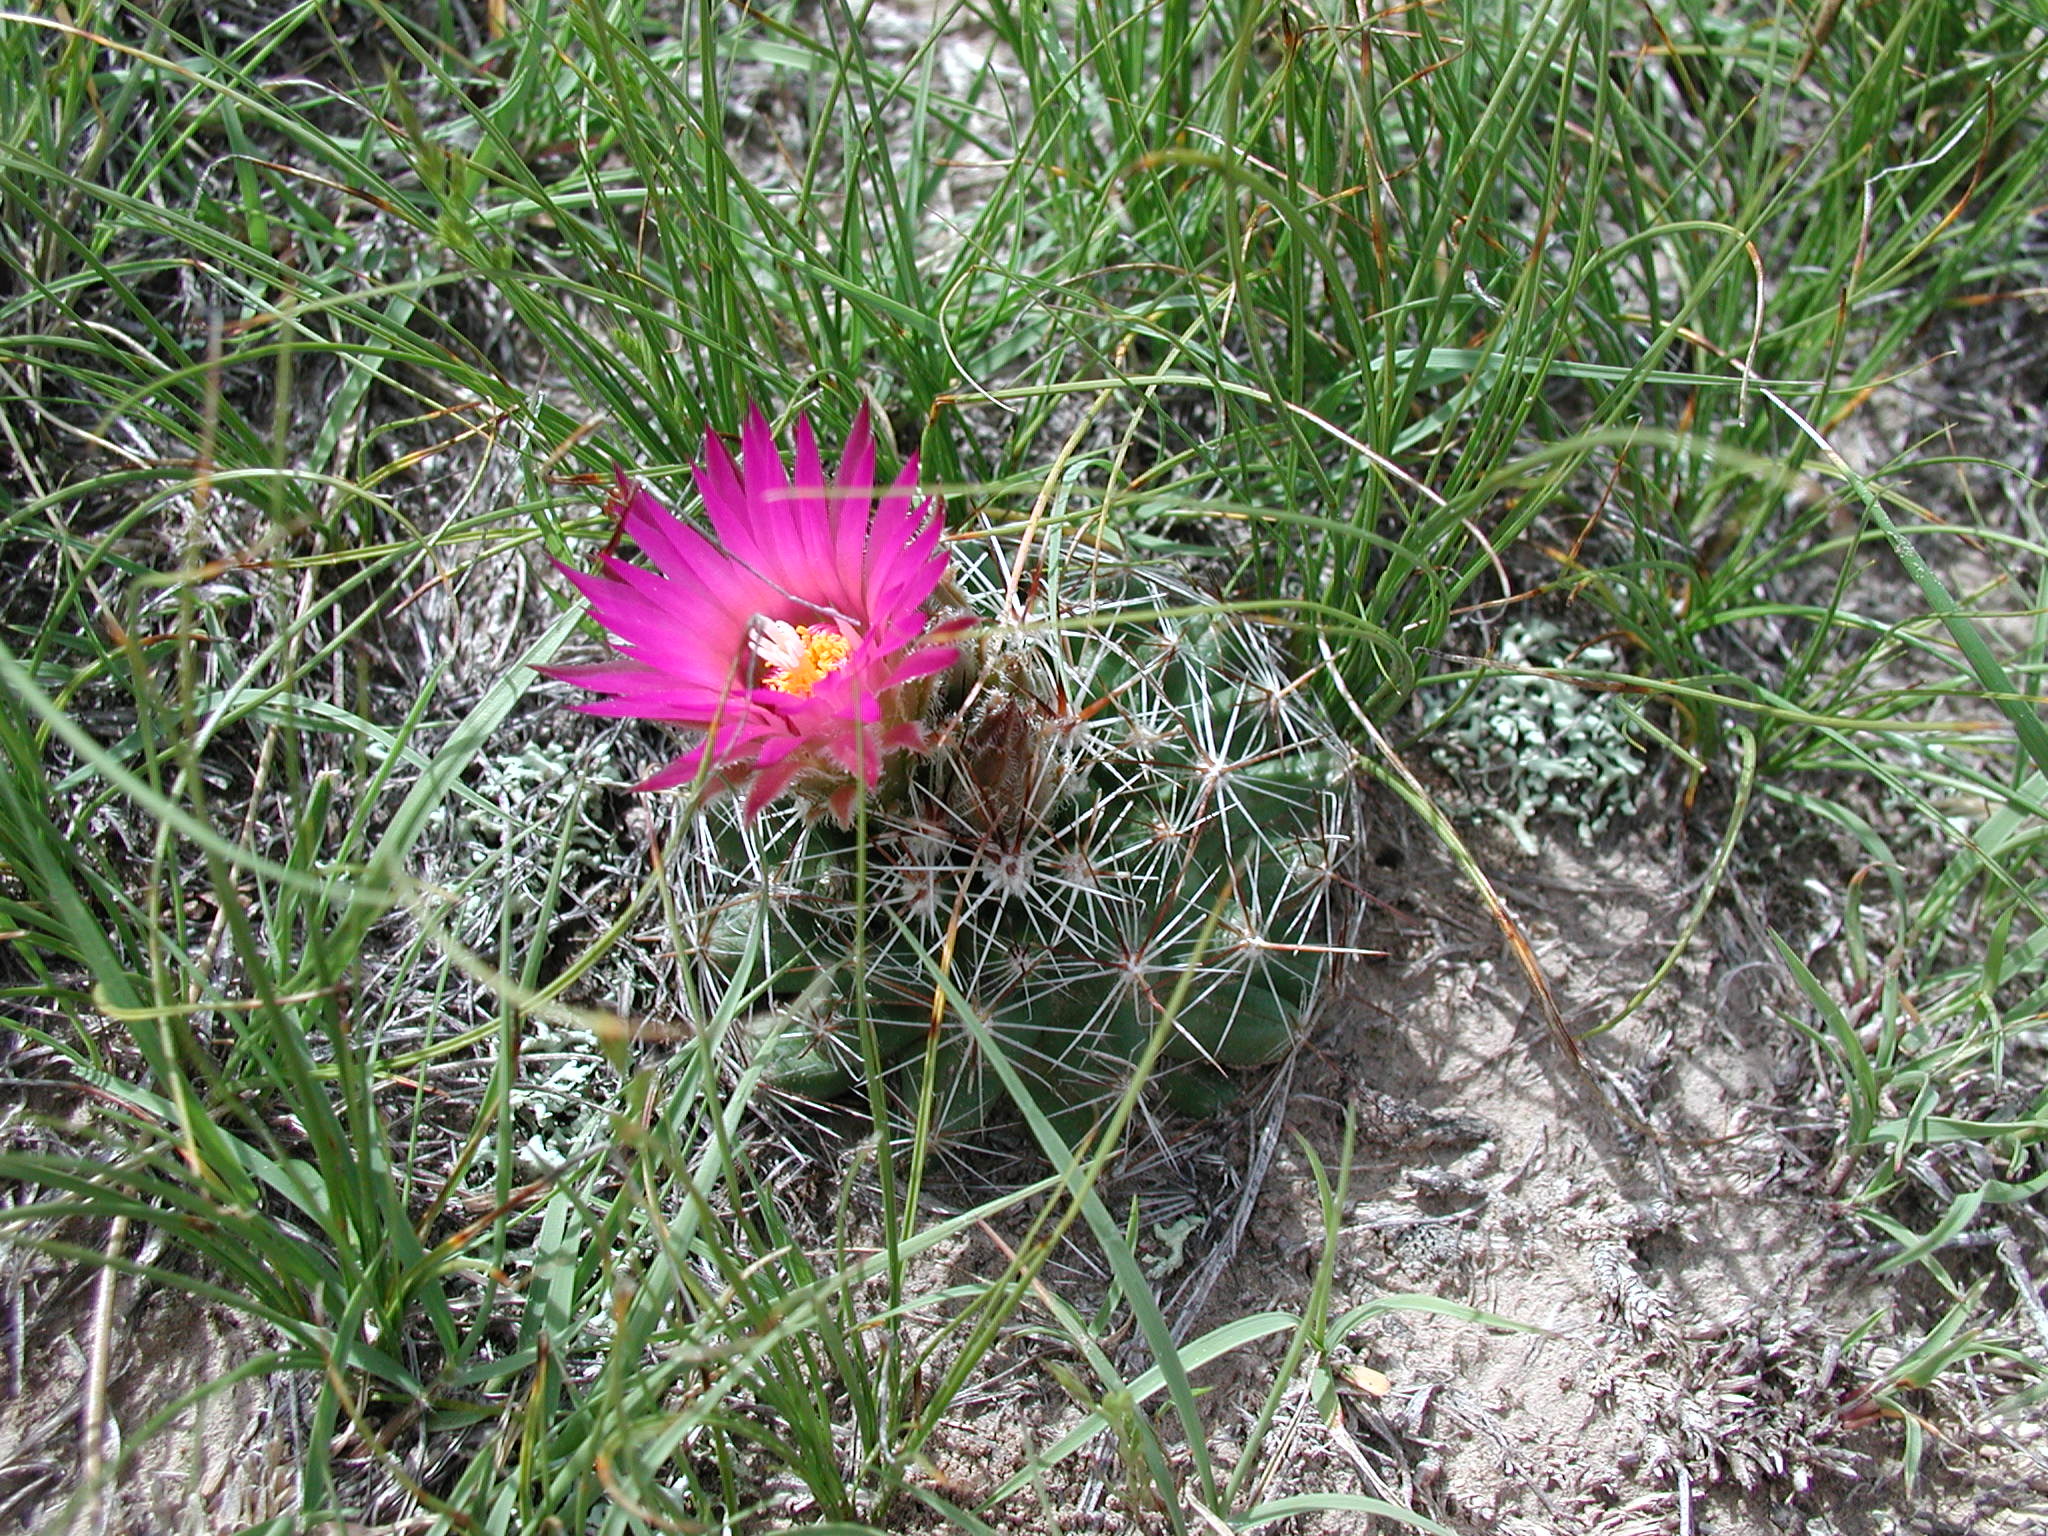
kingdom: Plantae
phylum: Tracheophyta
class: Magnoliopsida
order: Caryophyllales
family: Cactaceae
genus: Pelecyphora
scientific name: Pelecyphora vivipara
